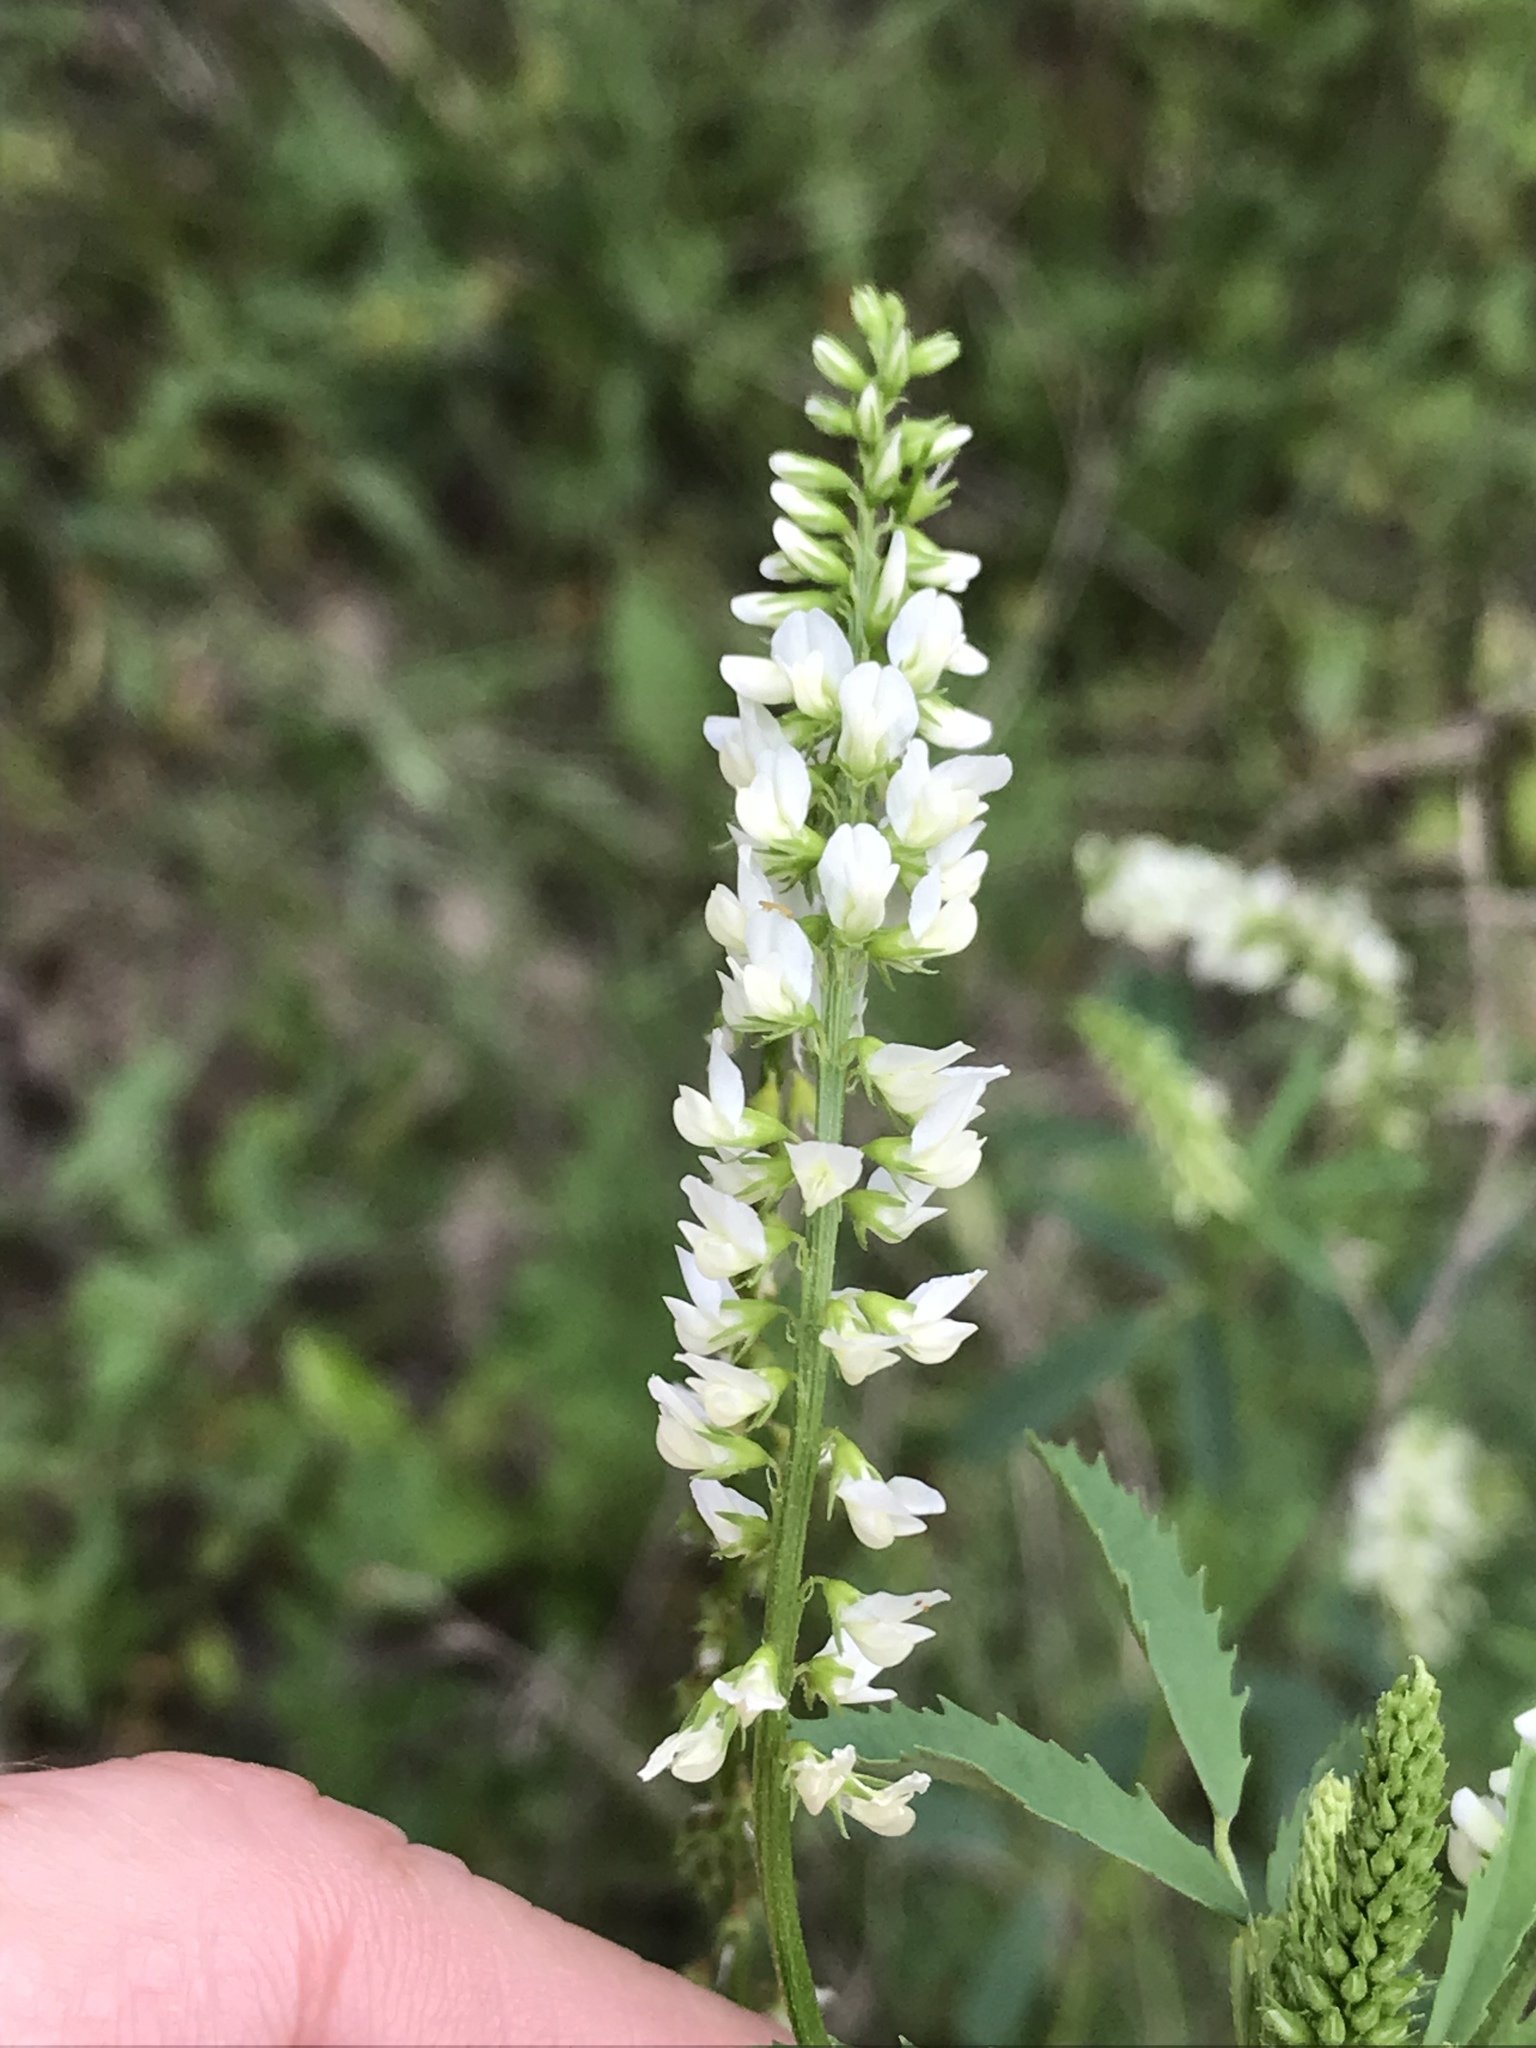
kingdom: Plantae
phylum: Tracheophyta
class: Magnoliopsida
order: Fabales
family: Fabaceae
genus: Melilotus
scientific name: Melilotus albus
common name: White melilot
